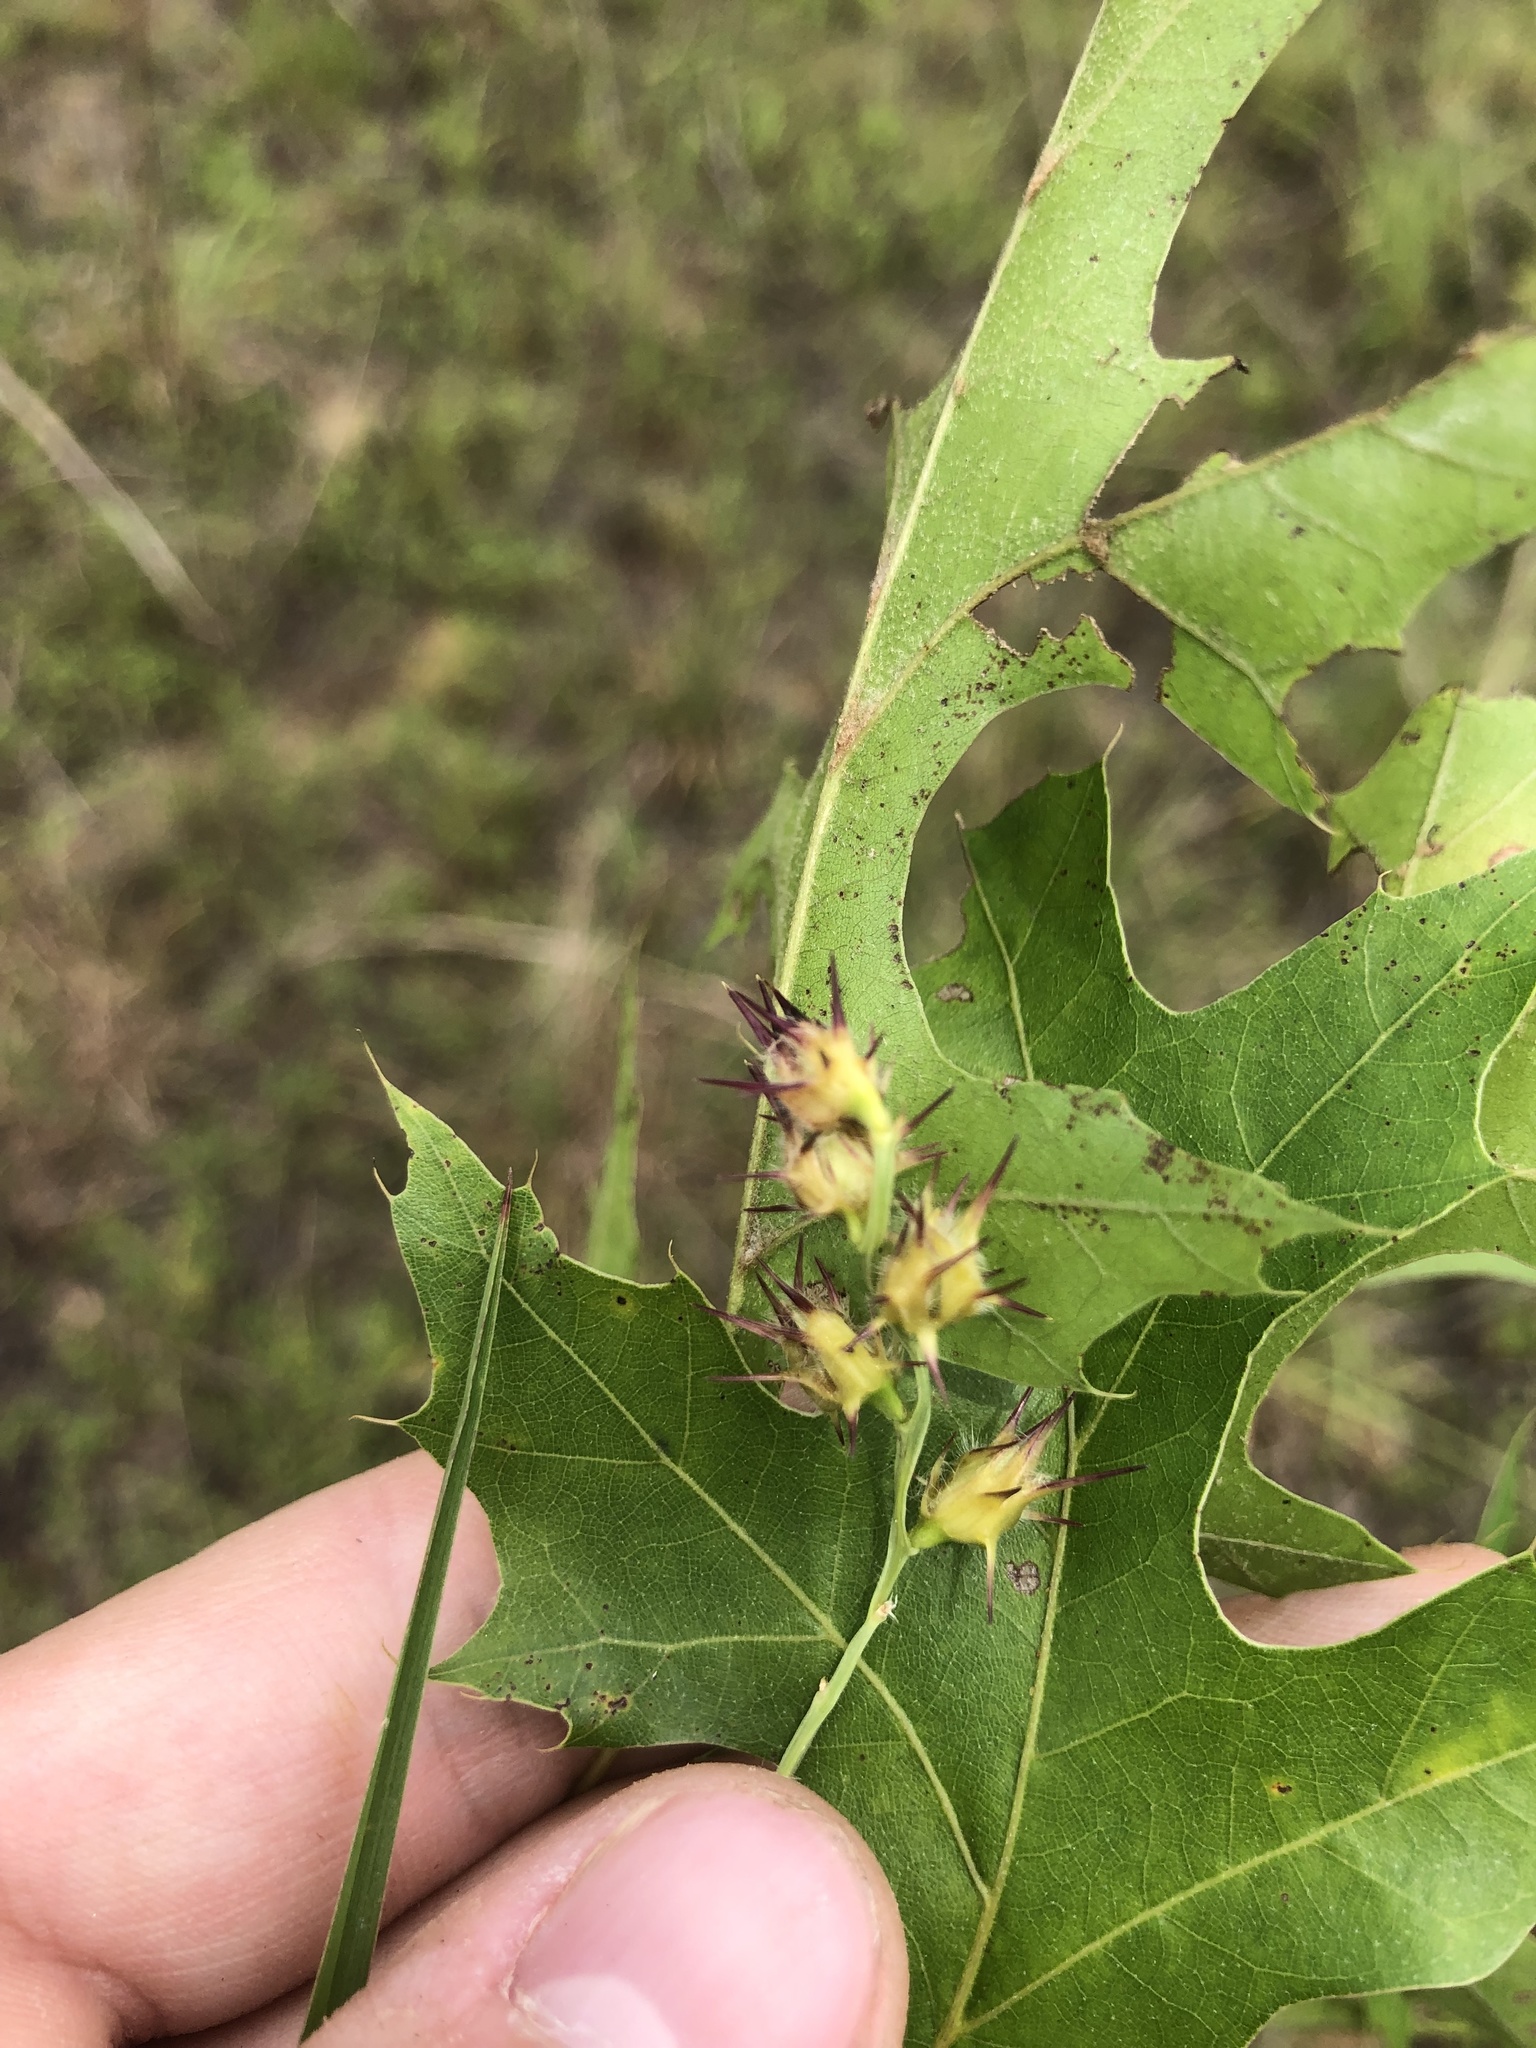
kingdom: Plantae
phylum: Tracheophyta
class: Liliopsida
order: Poales
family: Poaceae
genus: Cenchrus
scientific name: Cenchrus spinifex
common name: Coast sandbur
